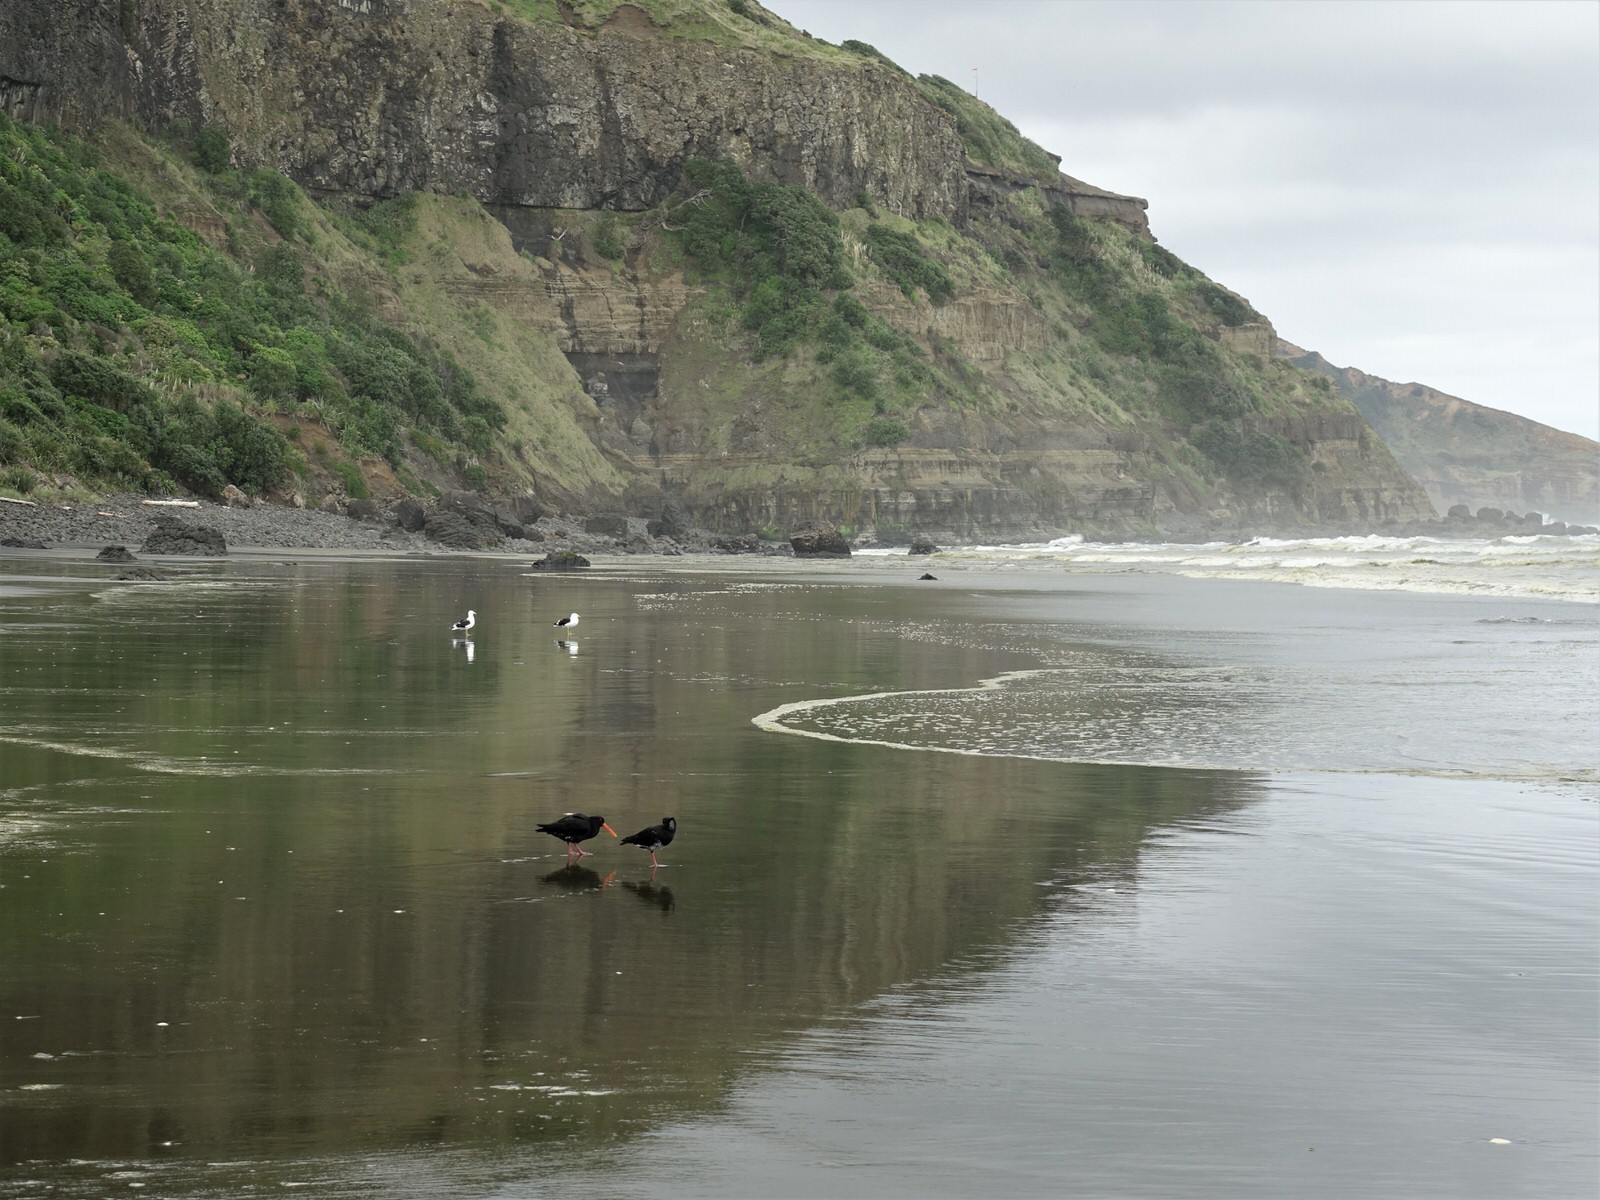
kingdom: Animalia
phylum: Chordata
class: Aves
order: Charadriiformes
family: Haematopodidae
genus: Haematopus
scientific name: Haematopus unicolor
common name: Variable oystercatcher
